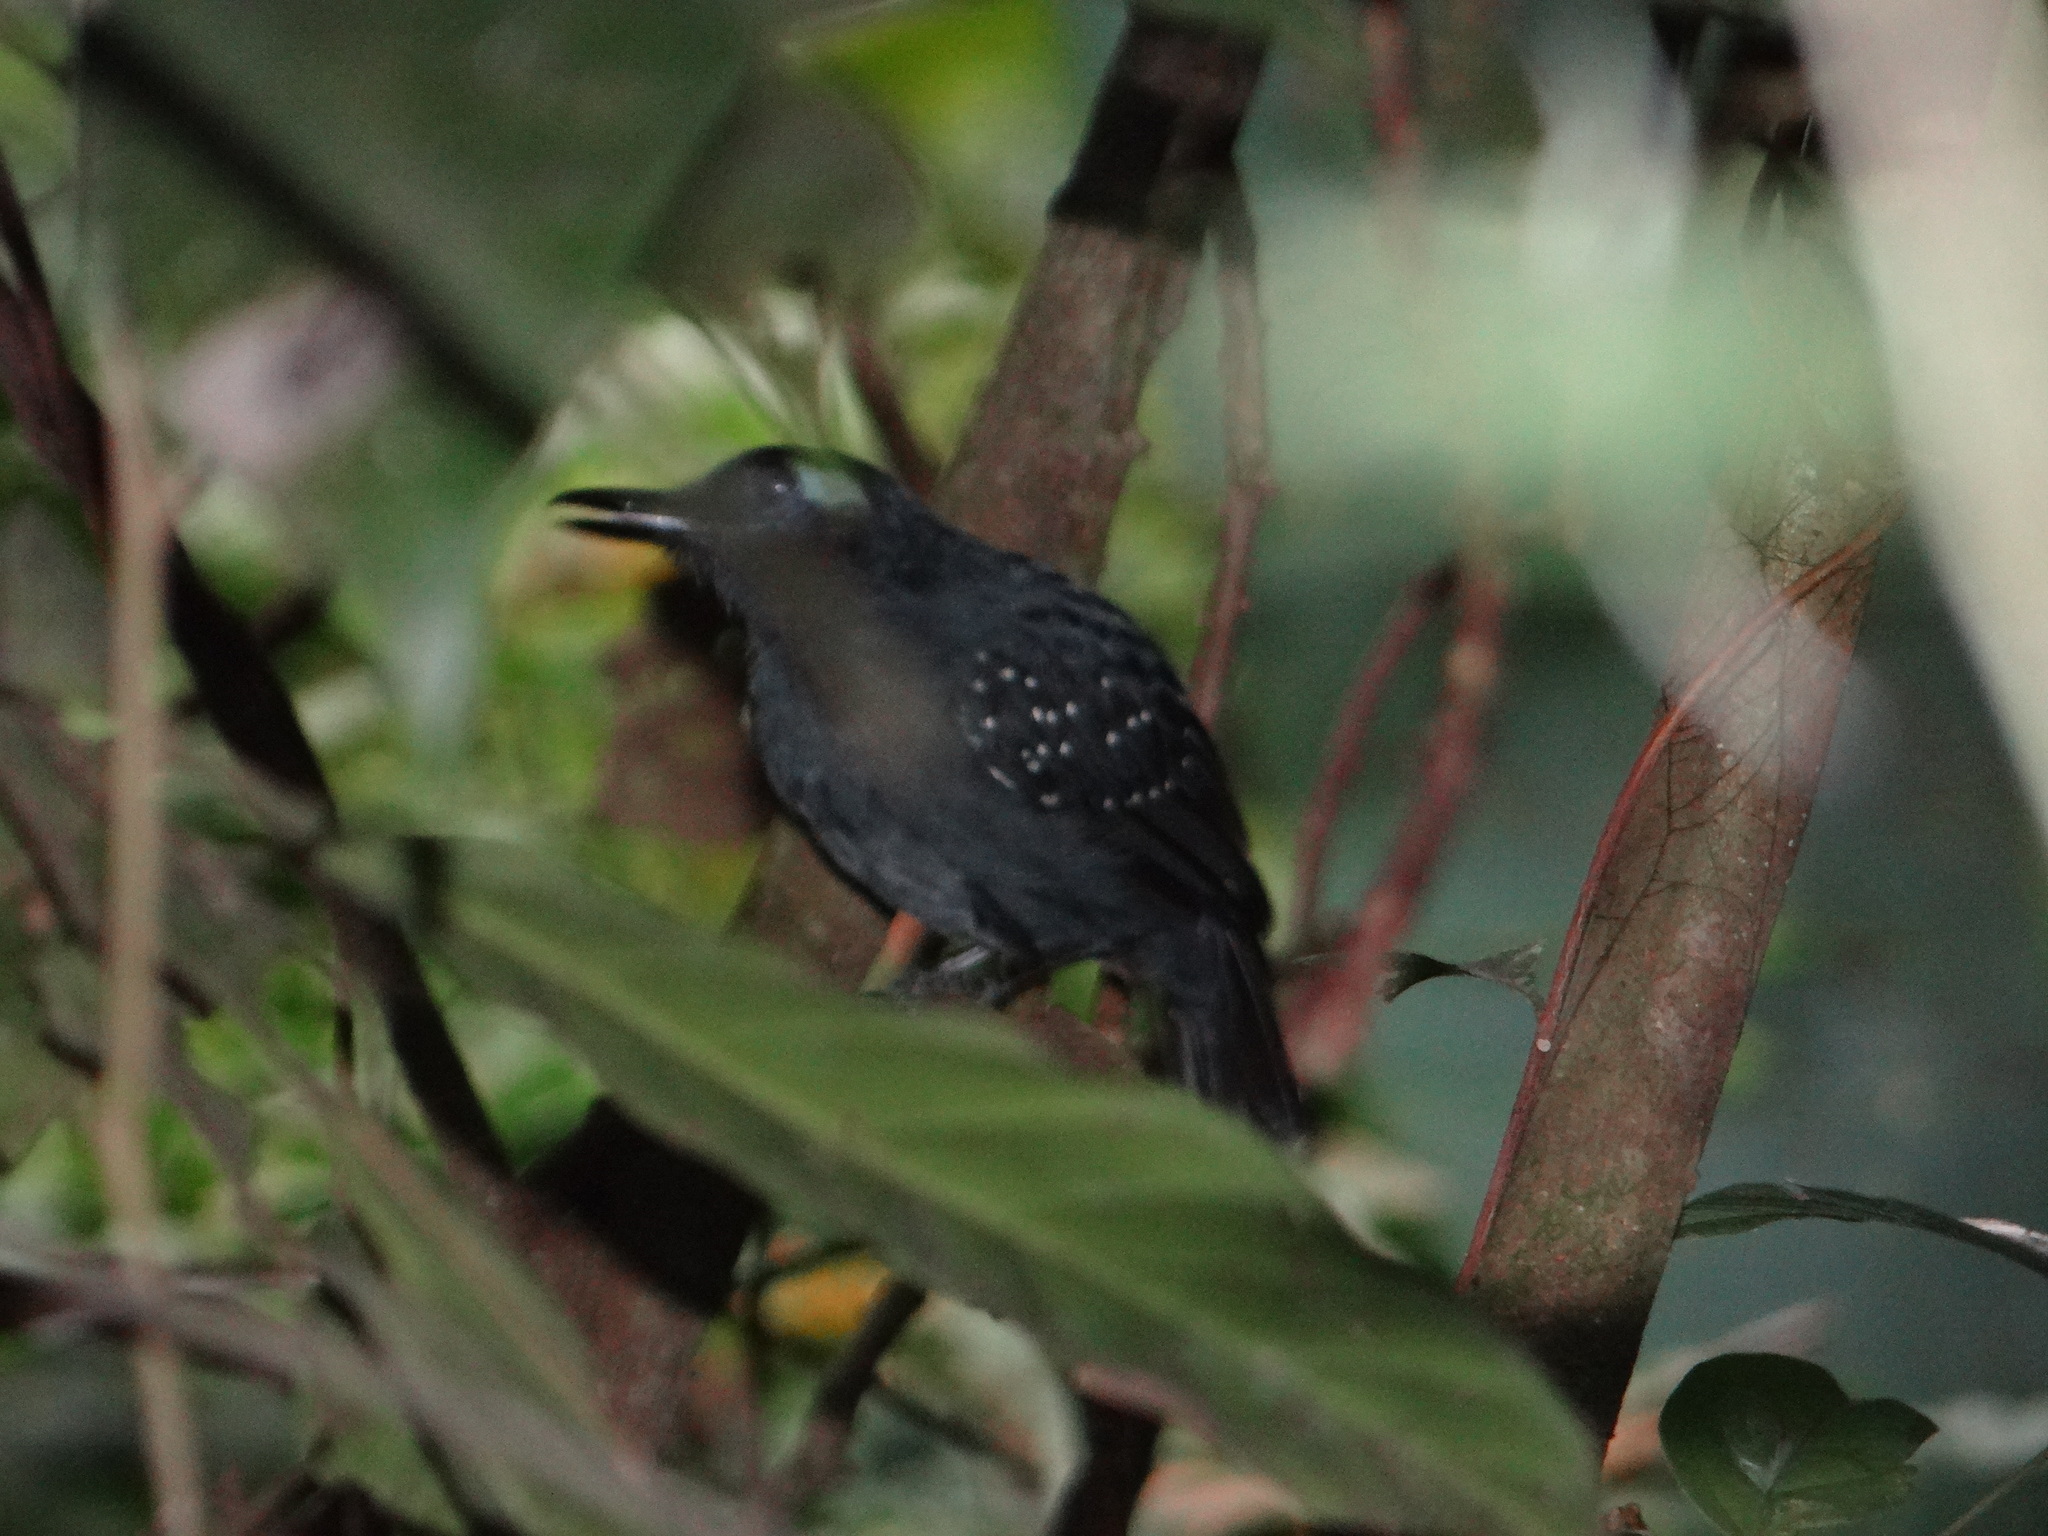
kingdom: Animalia
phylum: Chordata
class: Aves
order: Passeriformes
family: Thamnophilidae
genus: Myrmeciza
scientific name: Myrmeciza hyperythra
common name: Plumbeous antbird
